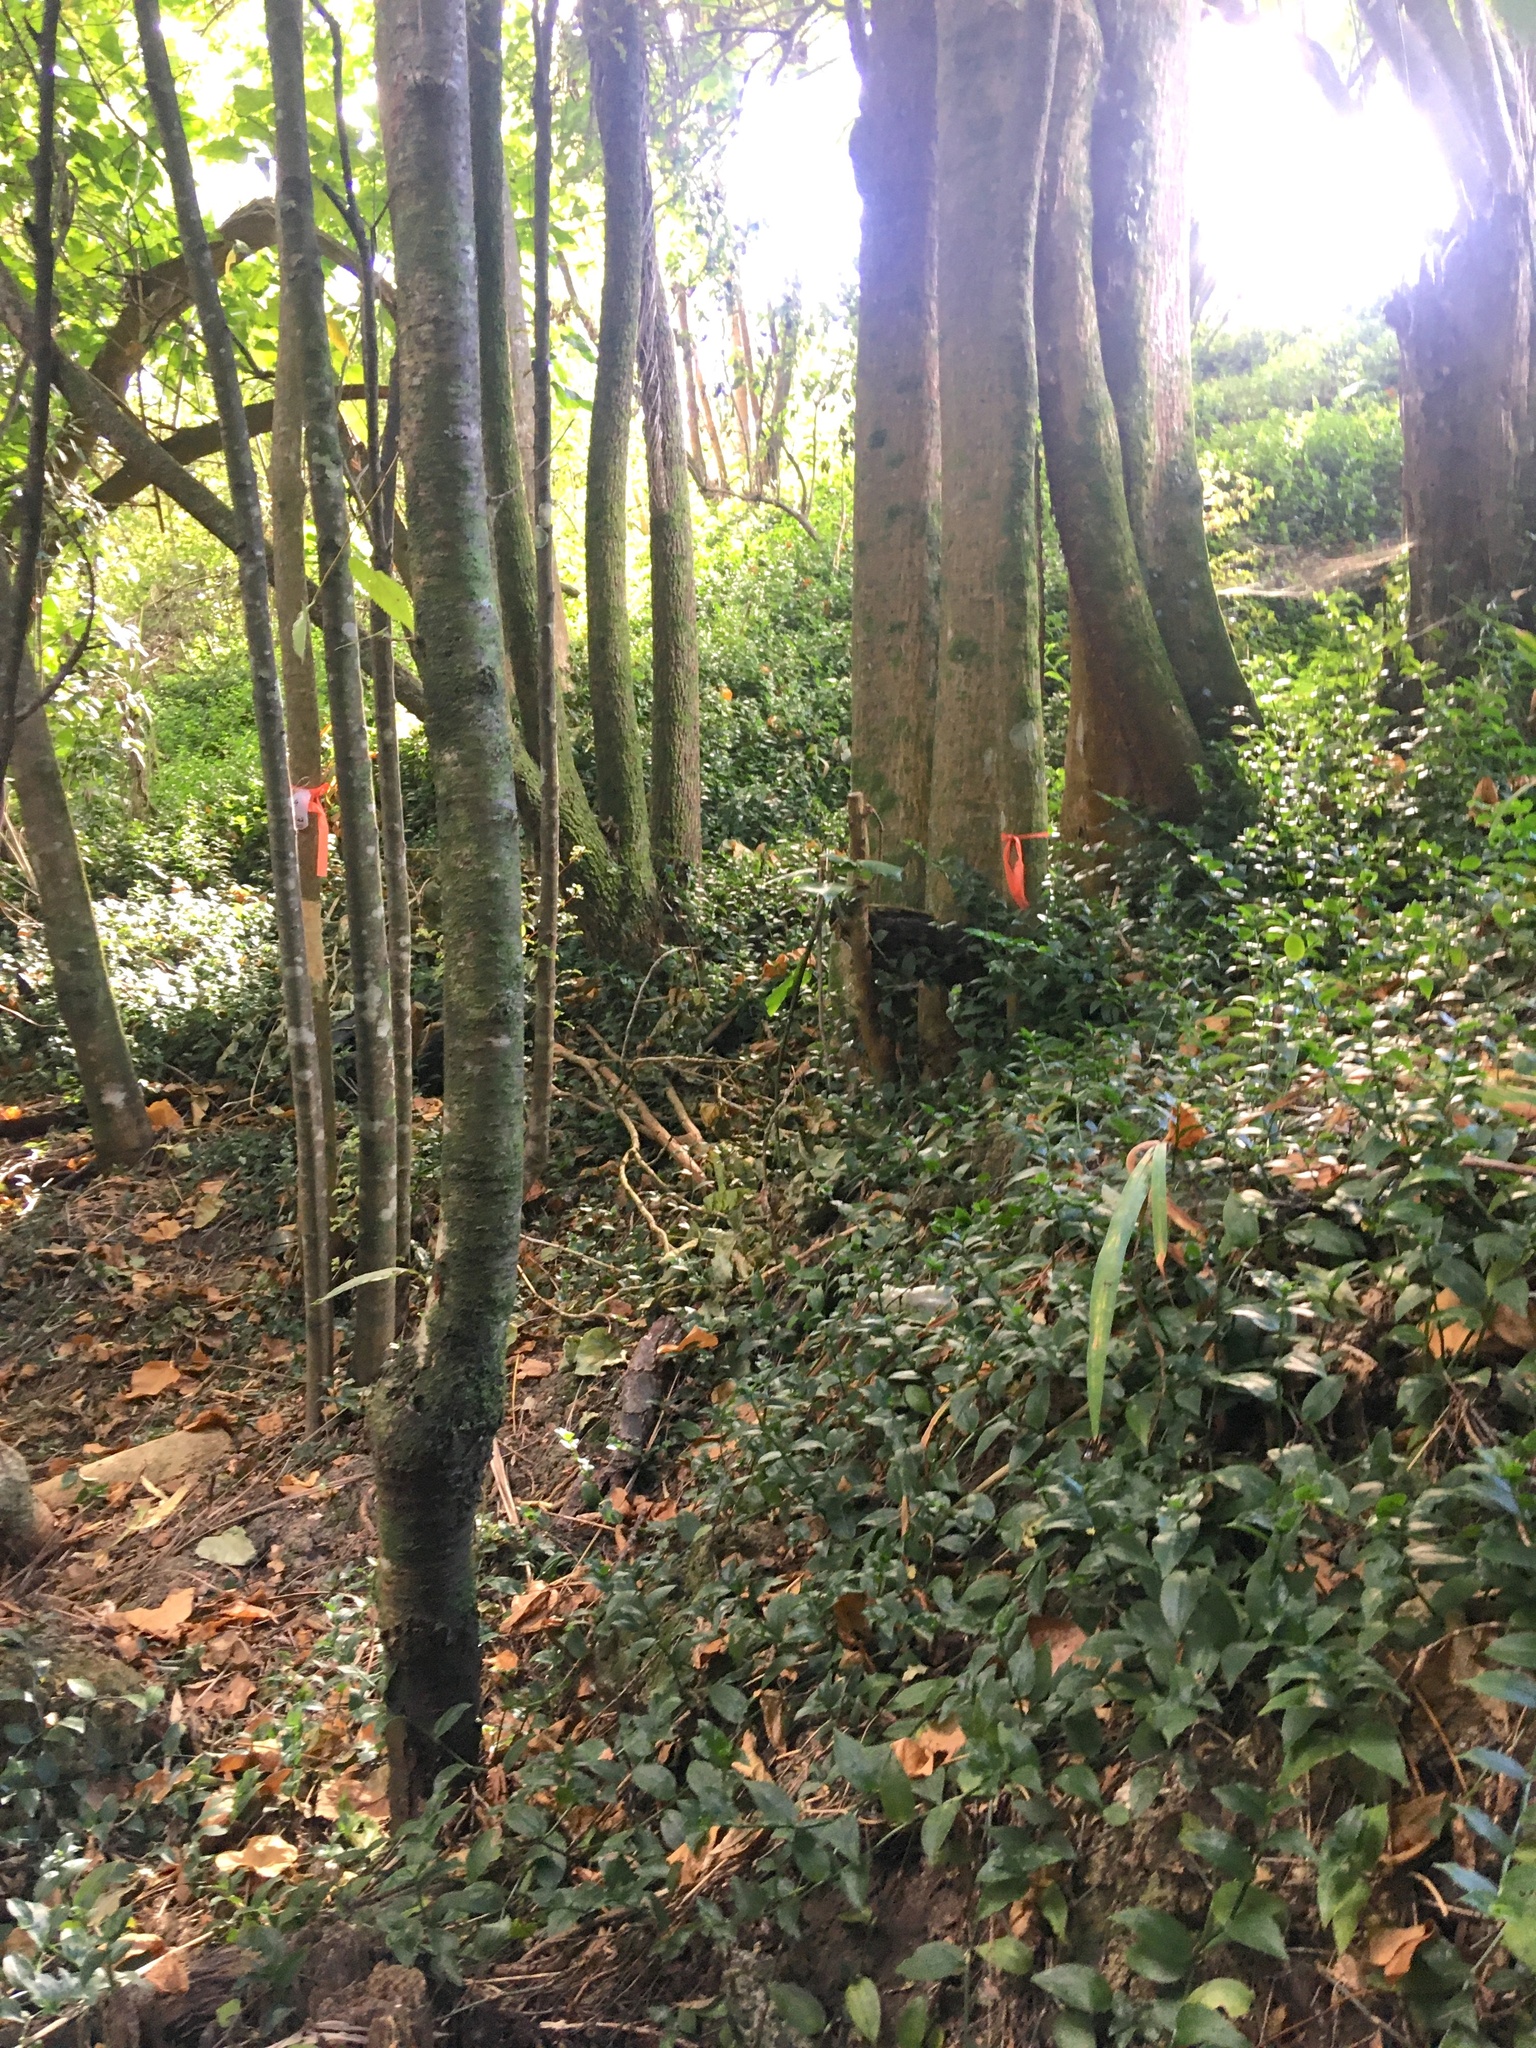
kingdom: Plantae
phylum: Tracheophyta
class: Magnoliopsida
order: Fabales
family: Fabaceae
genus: Erythrina
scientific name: Erythrina sykesii
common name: Coraltree
